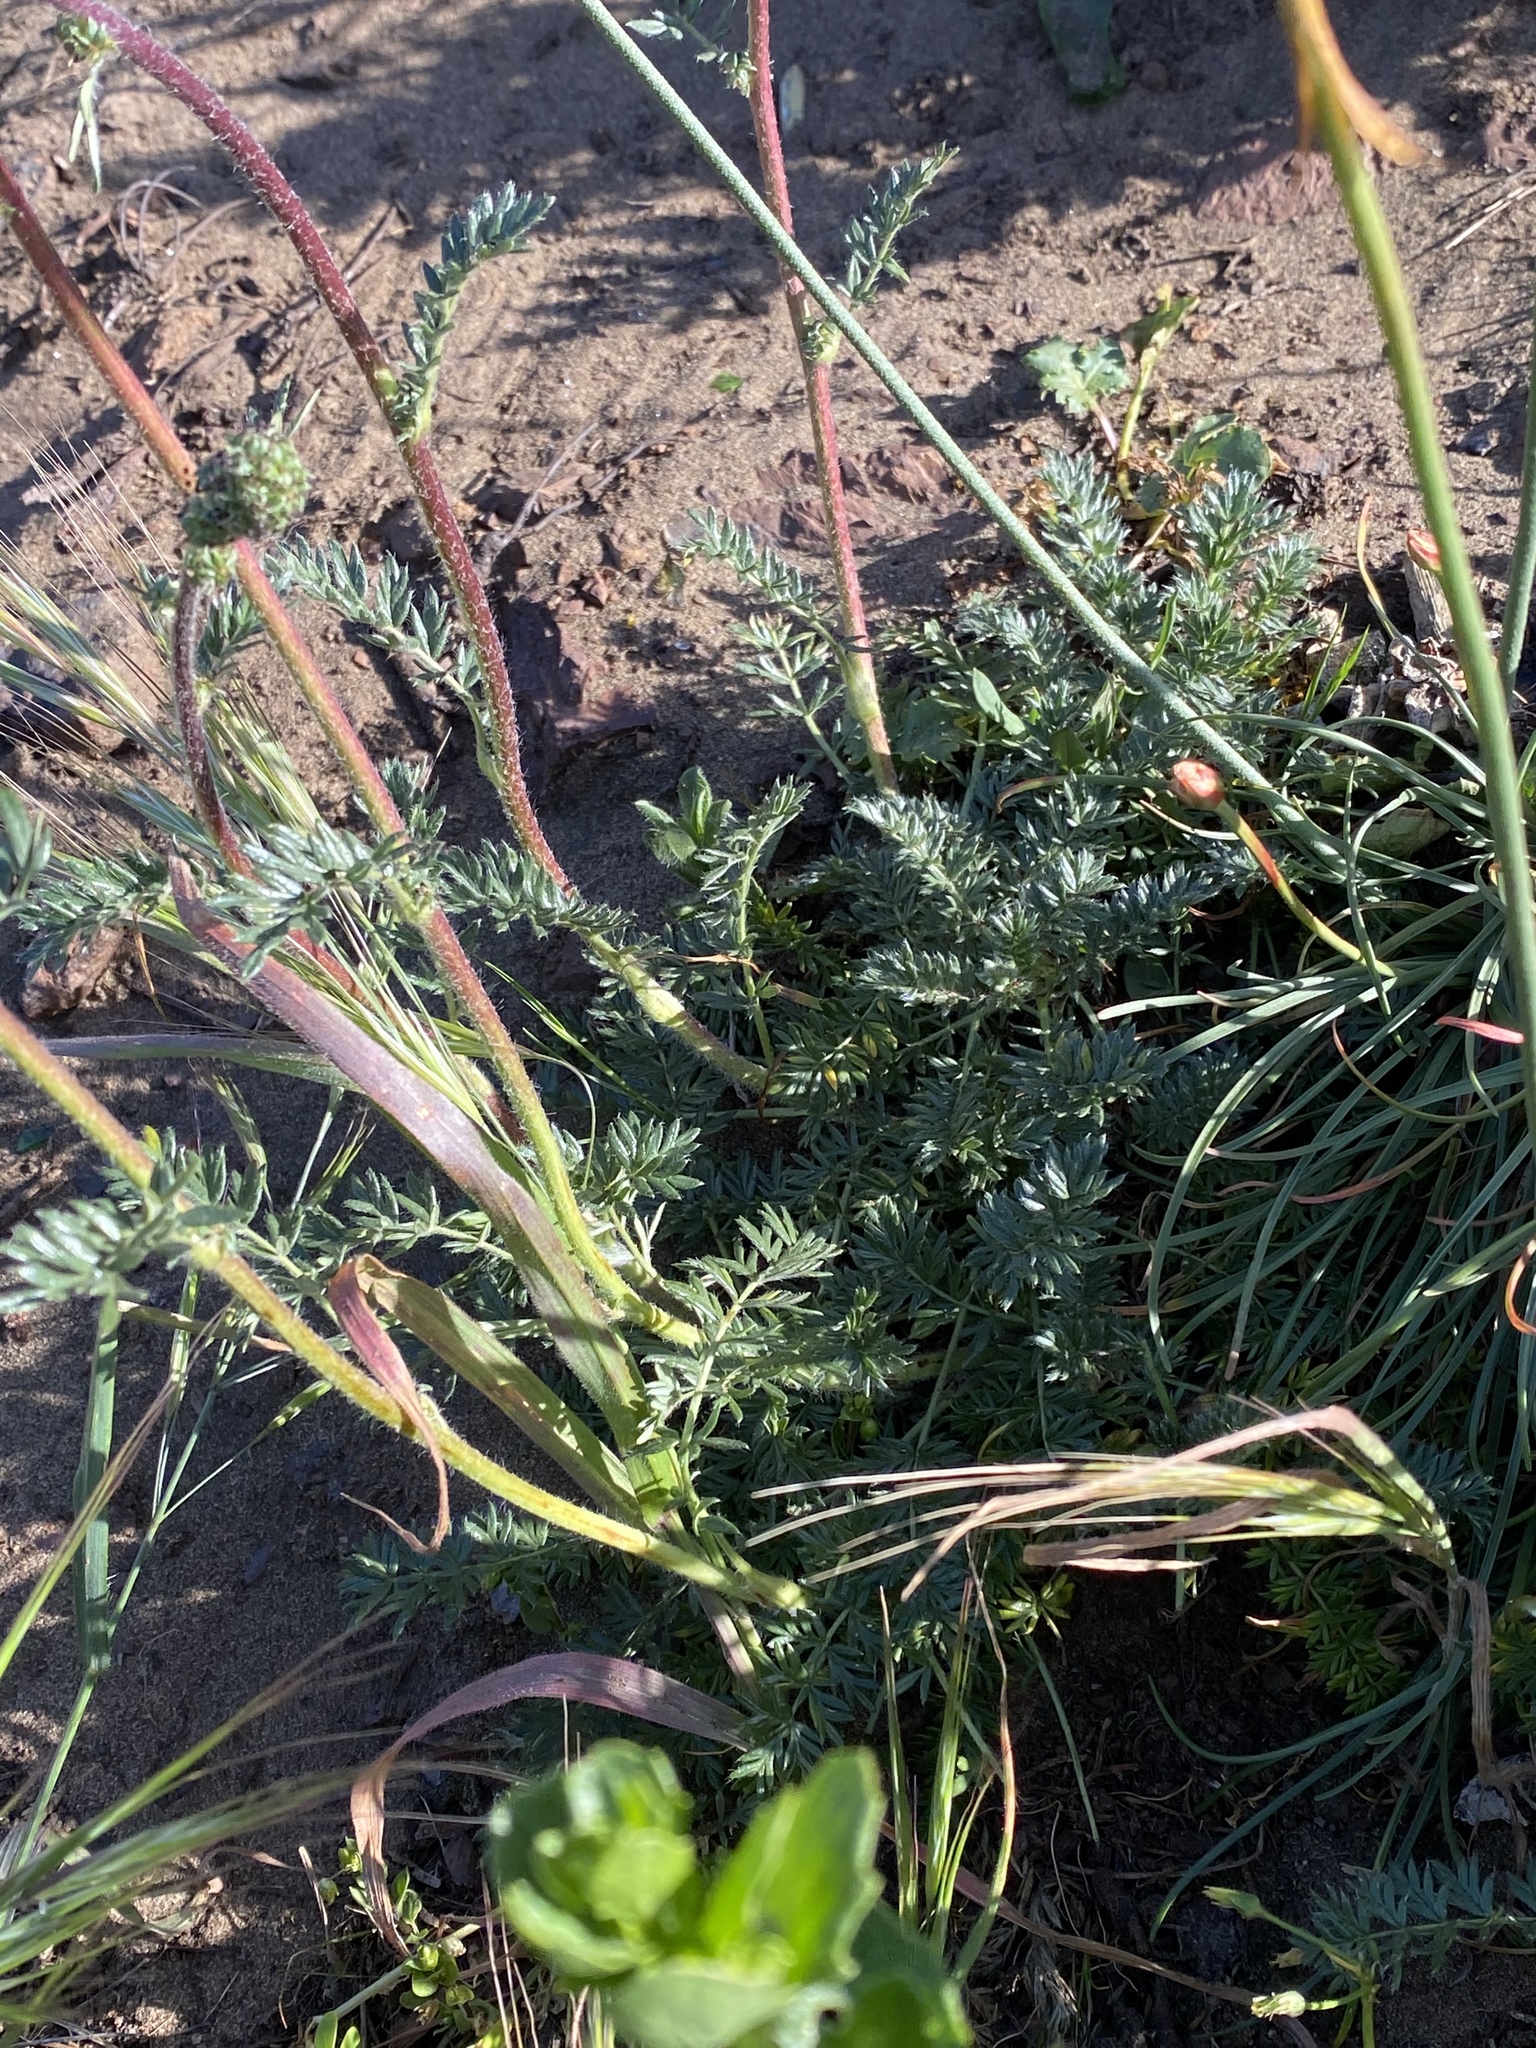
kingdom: Plantae
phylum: Tracheophyta
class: Magnoliopsida
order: Rosales
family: Rosaceae
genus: Acaena
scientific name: Acaena pinnatifida
